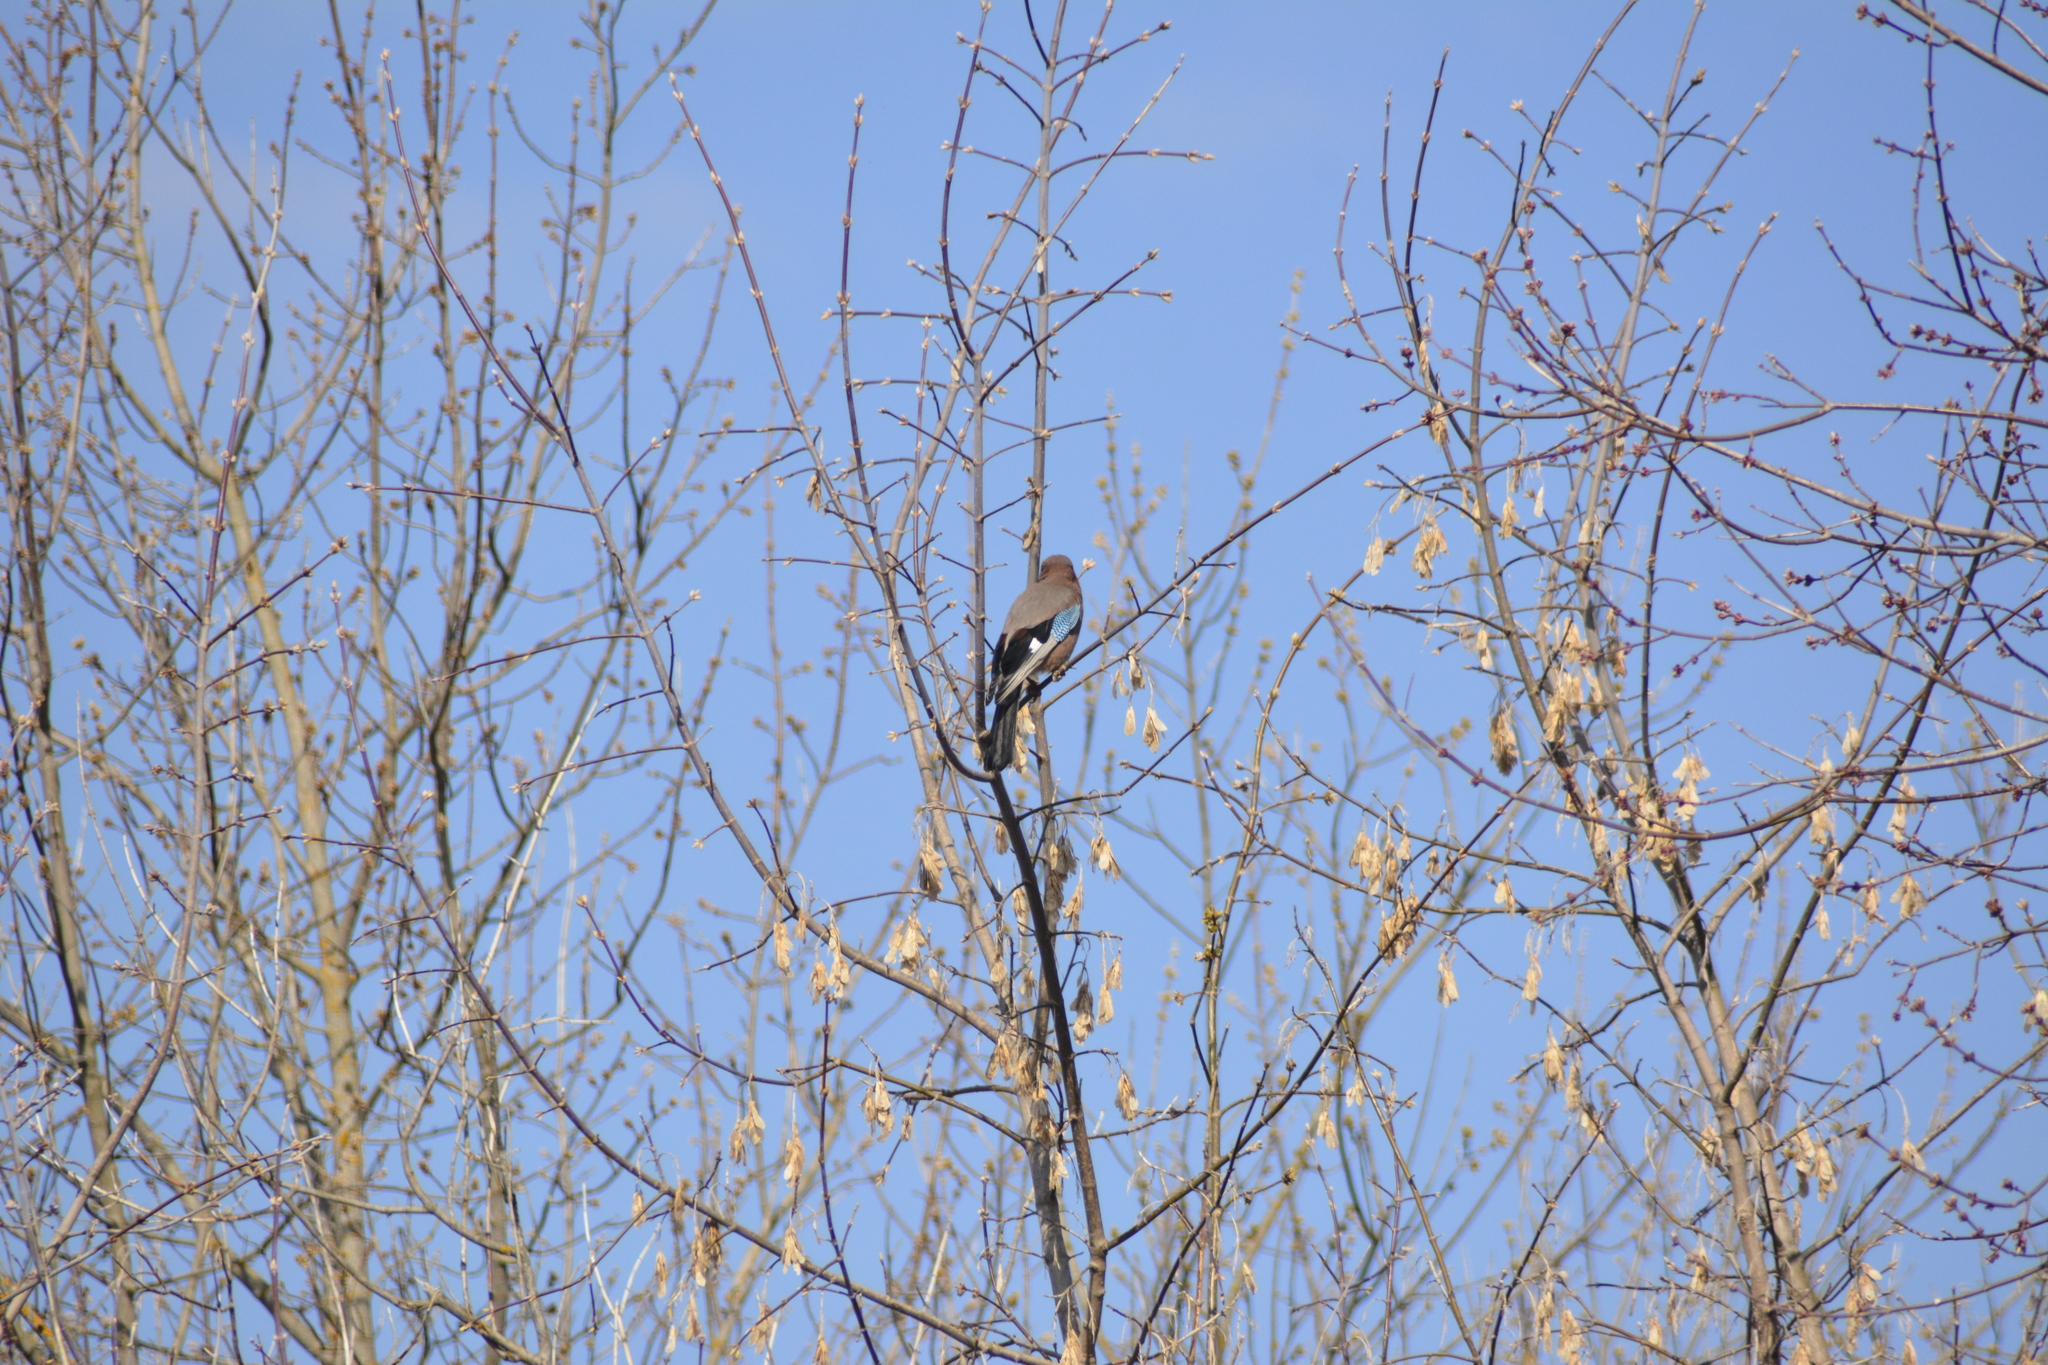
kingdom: Animalia
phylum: Chordata
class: Aves
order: Passeriformes
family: Corvidae
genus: Garrulus
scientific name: Garrulus glandarius
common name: Eurasian jay
